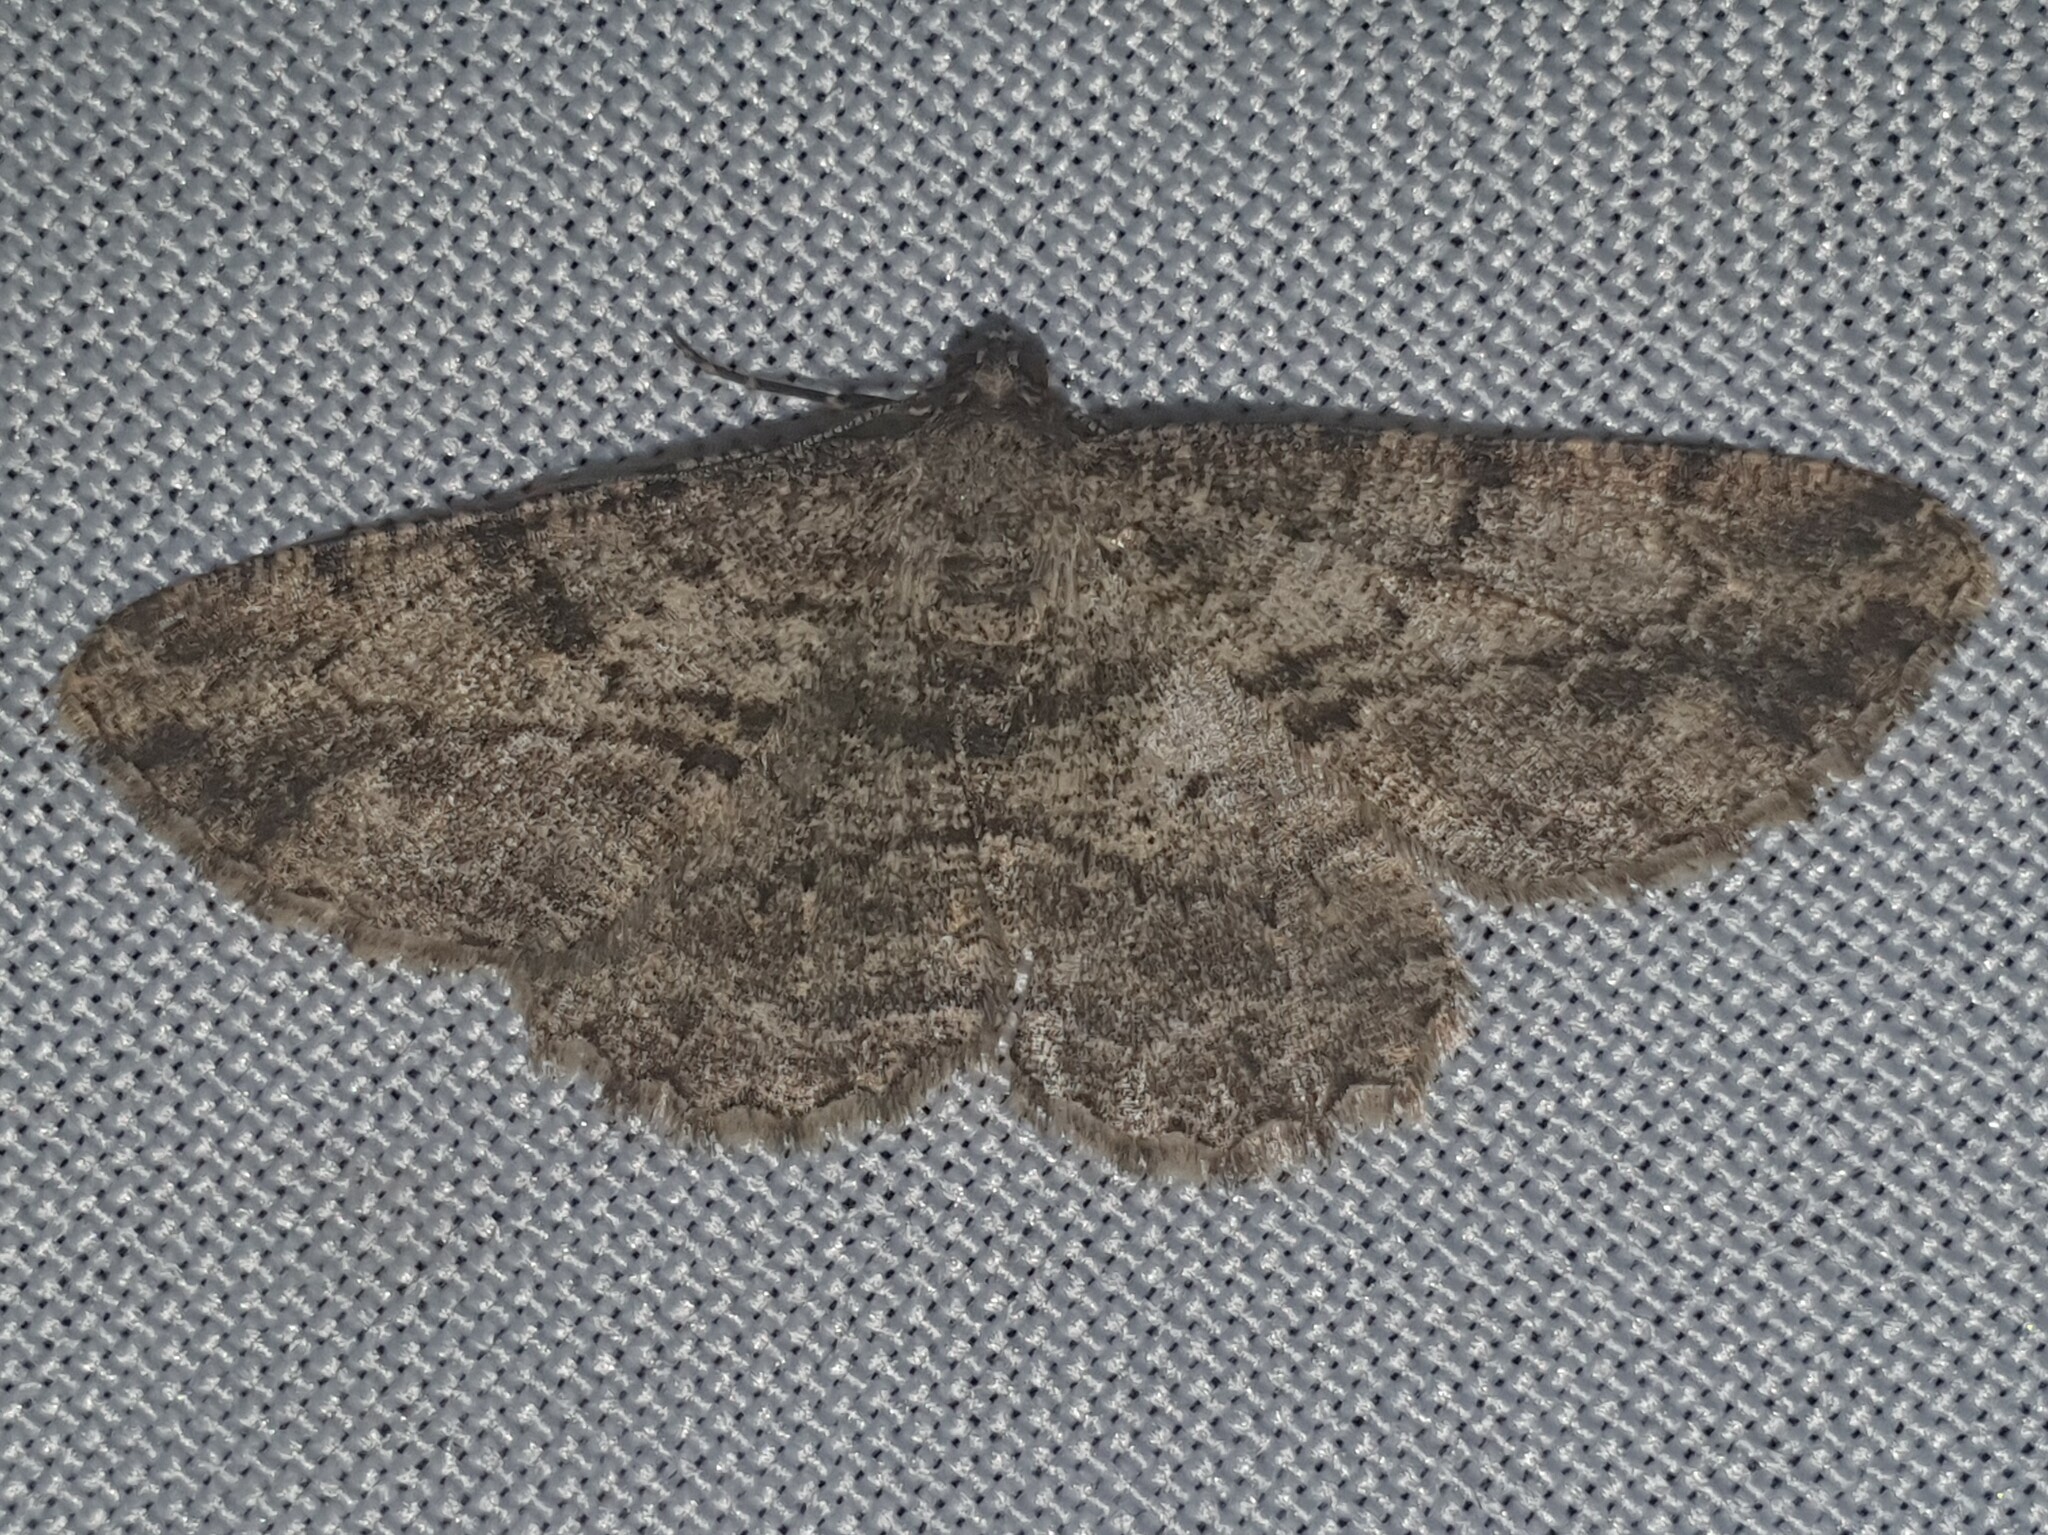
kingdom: Animalia
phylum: Arthropoda
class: Insecta
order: Lepidoptera
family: Geometridae
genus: Peribatodes
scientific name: Peribatodes rhomboidaria
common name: Willow beauty
